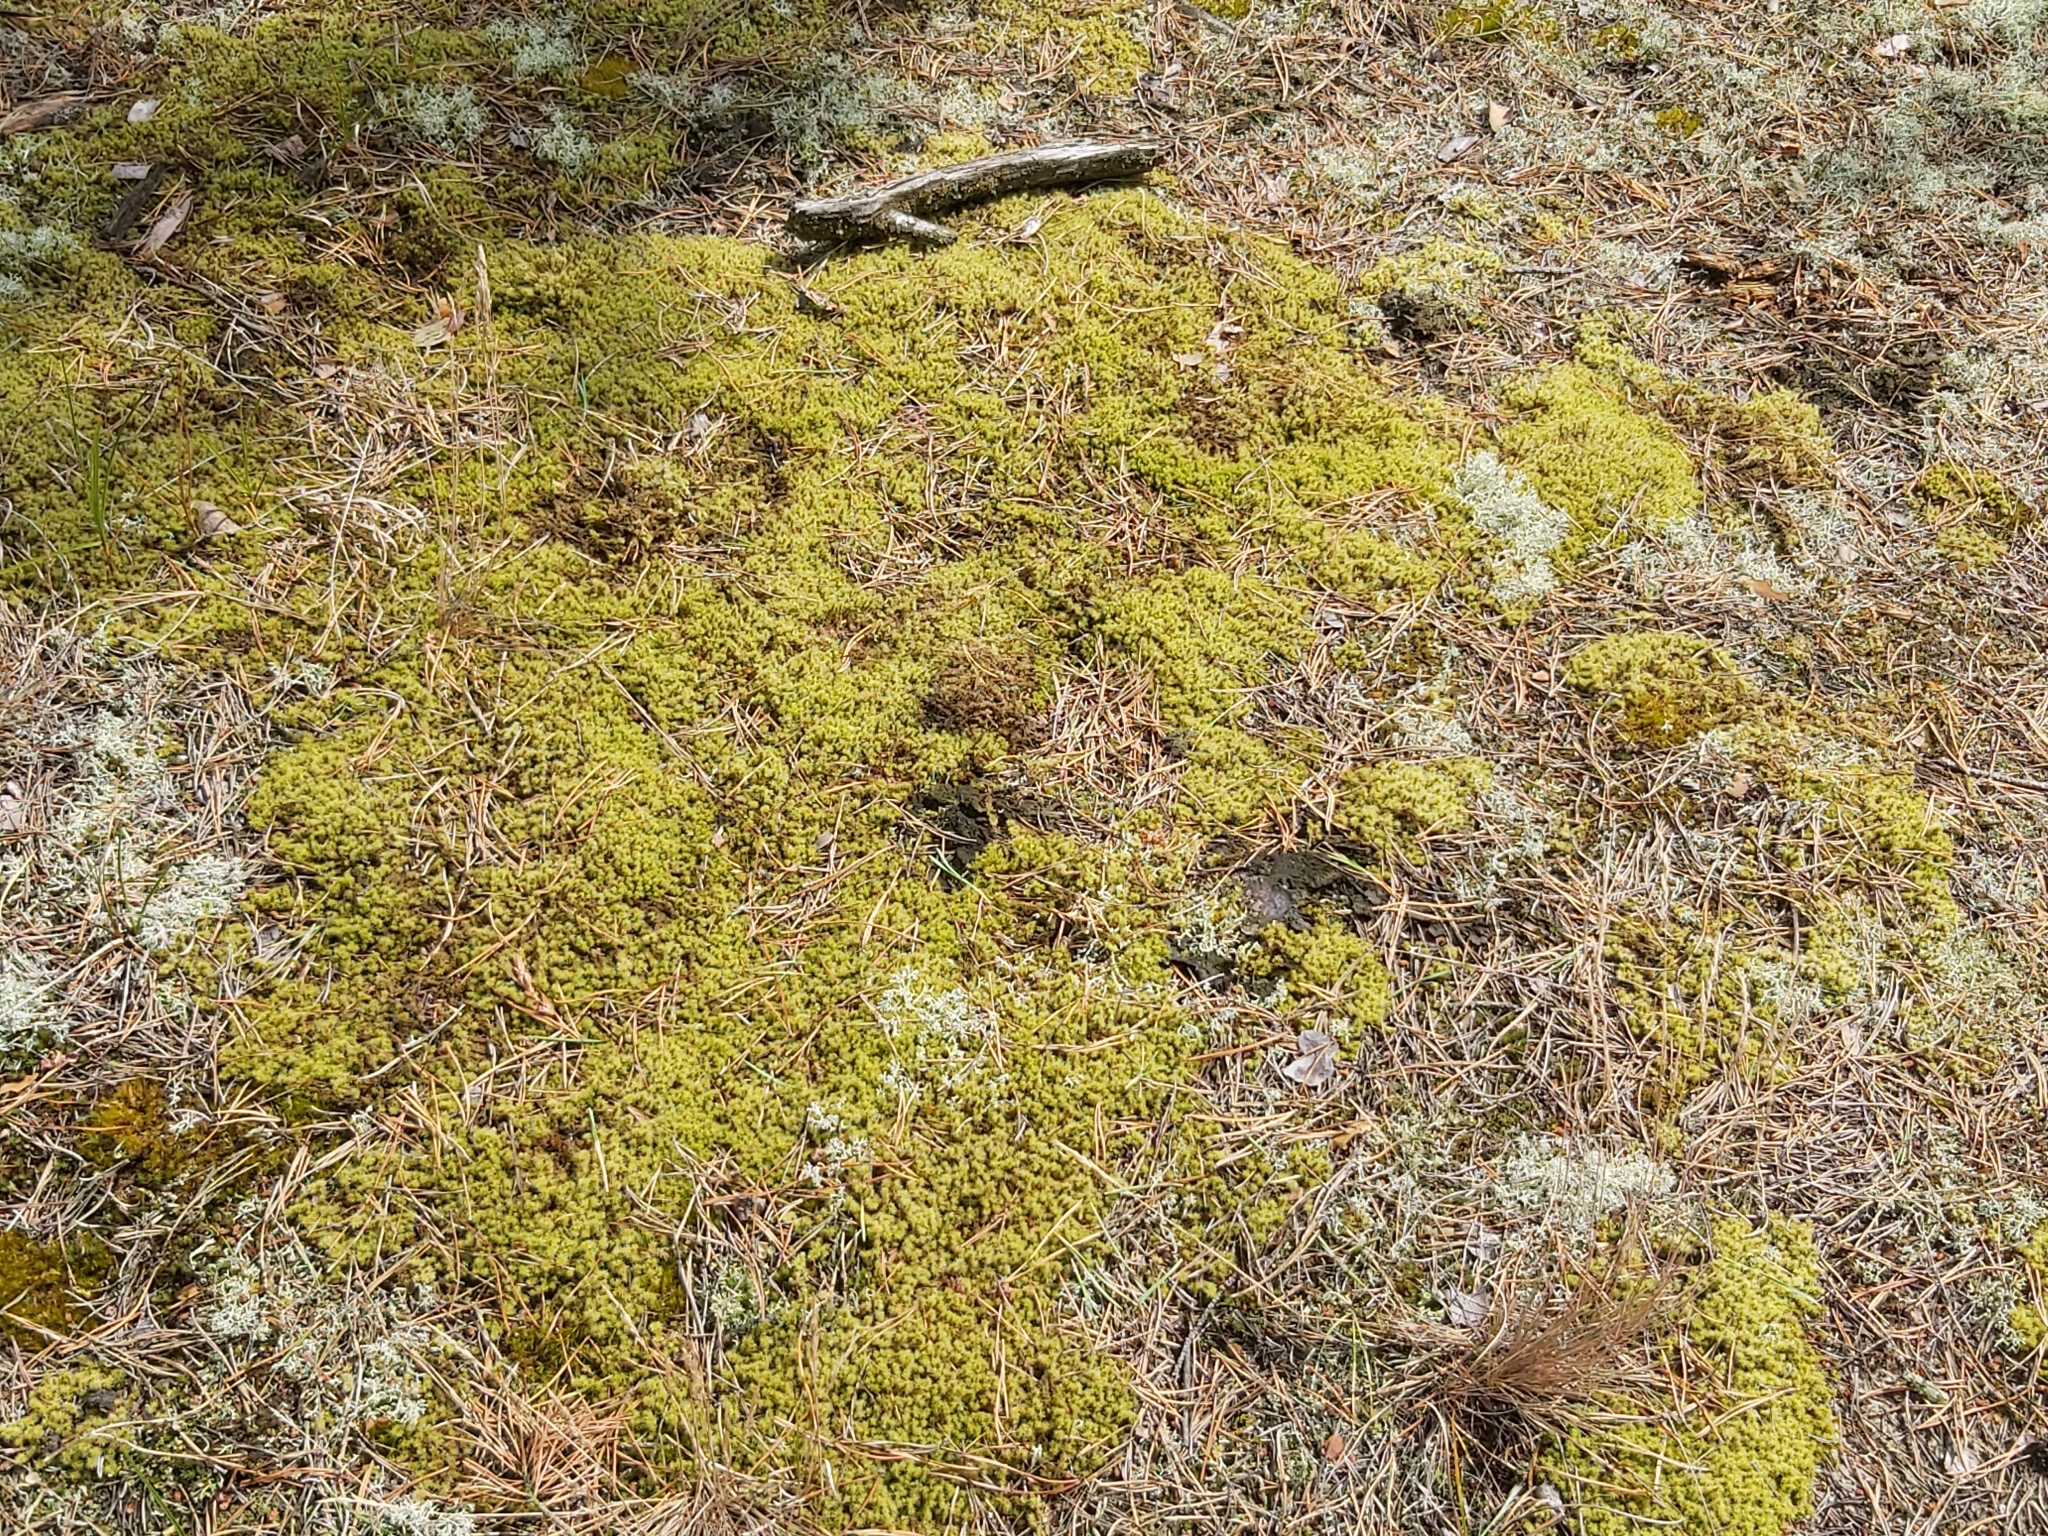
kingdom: Plantae
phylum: Bryophyta
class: Bryopsida
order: Grimmiales
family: Grimmiaceae
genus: Niphotrichum
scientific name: Niphotrichum elongatum
